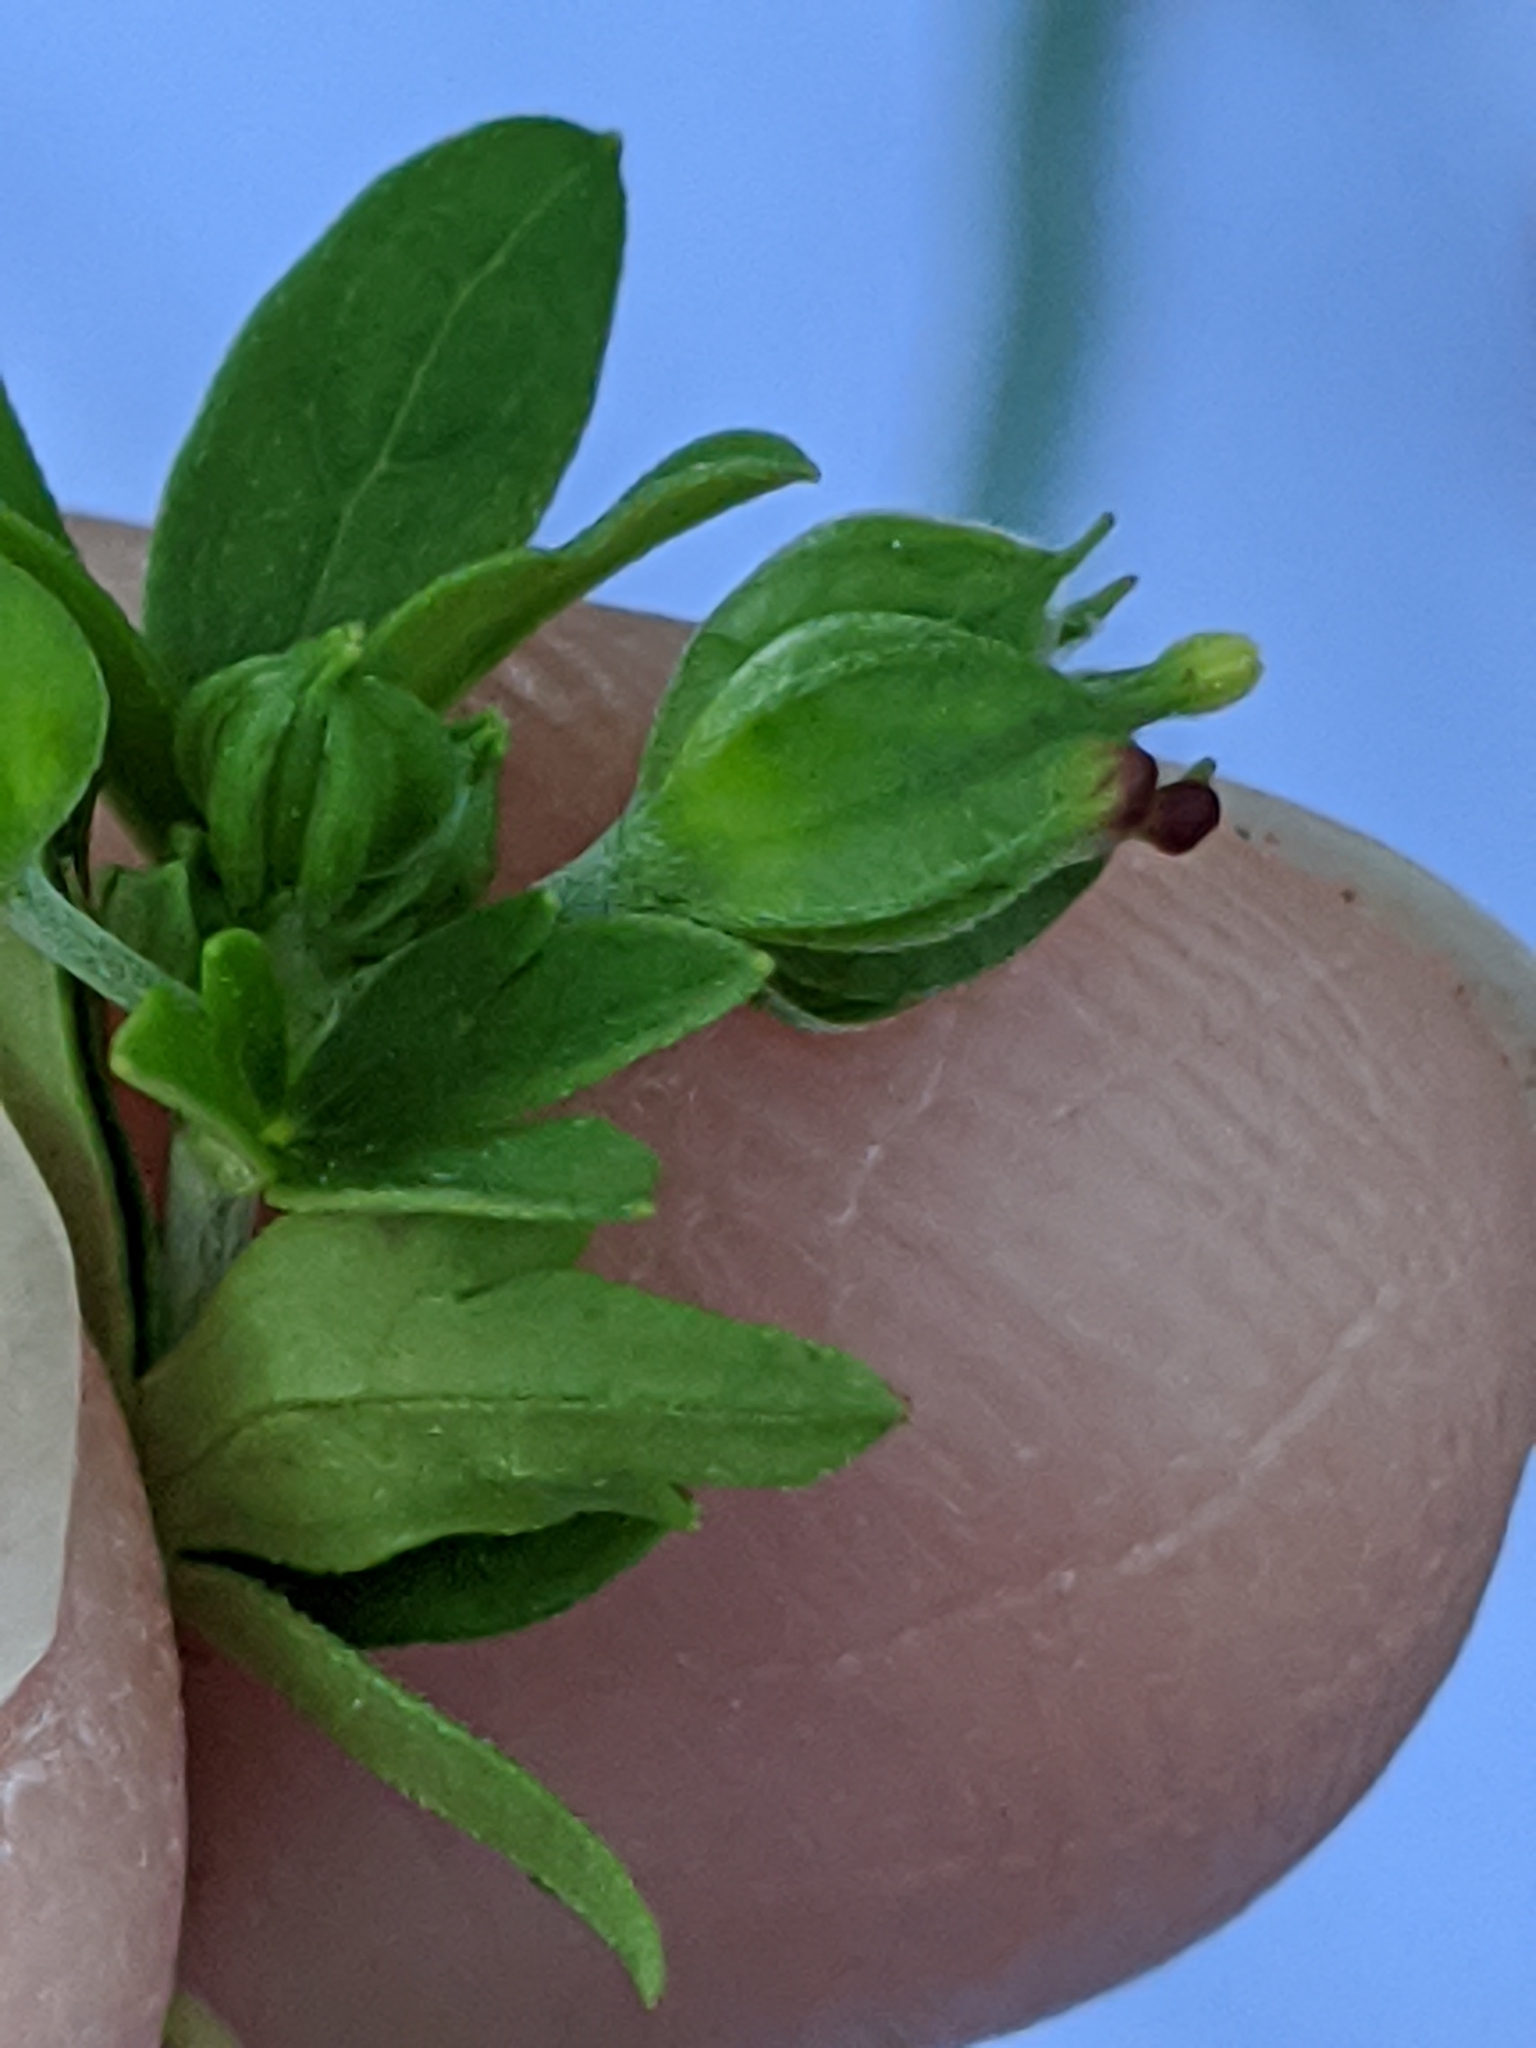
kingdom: Plantae
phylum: Tracheophyta
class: Magnoliopsida
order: Geraniales
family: Geraniaceae
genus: Geranium
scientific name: Geranium texanum
